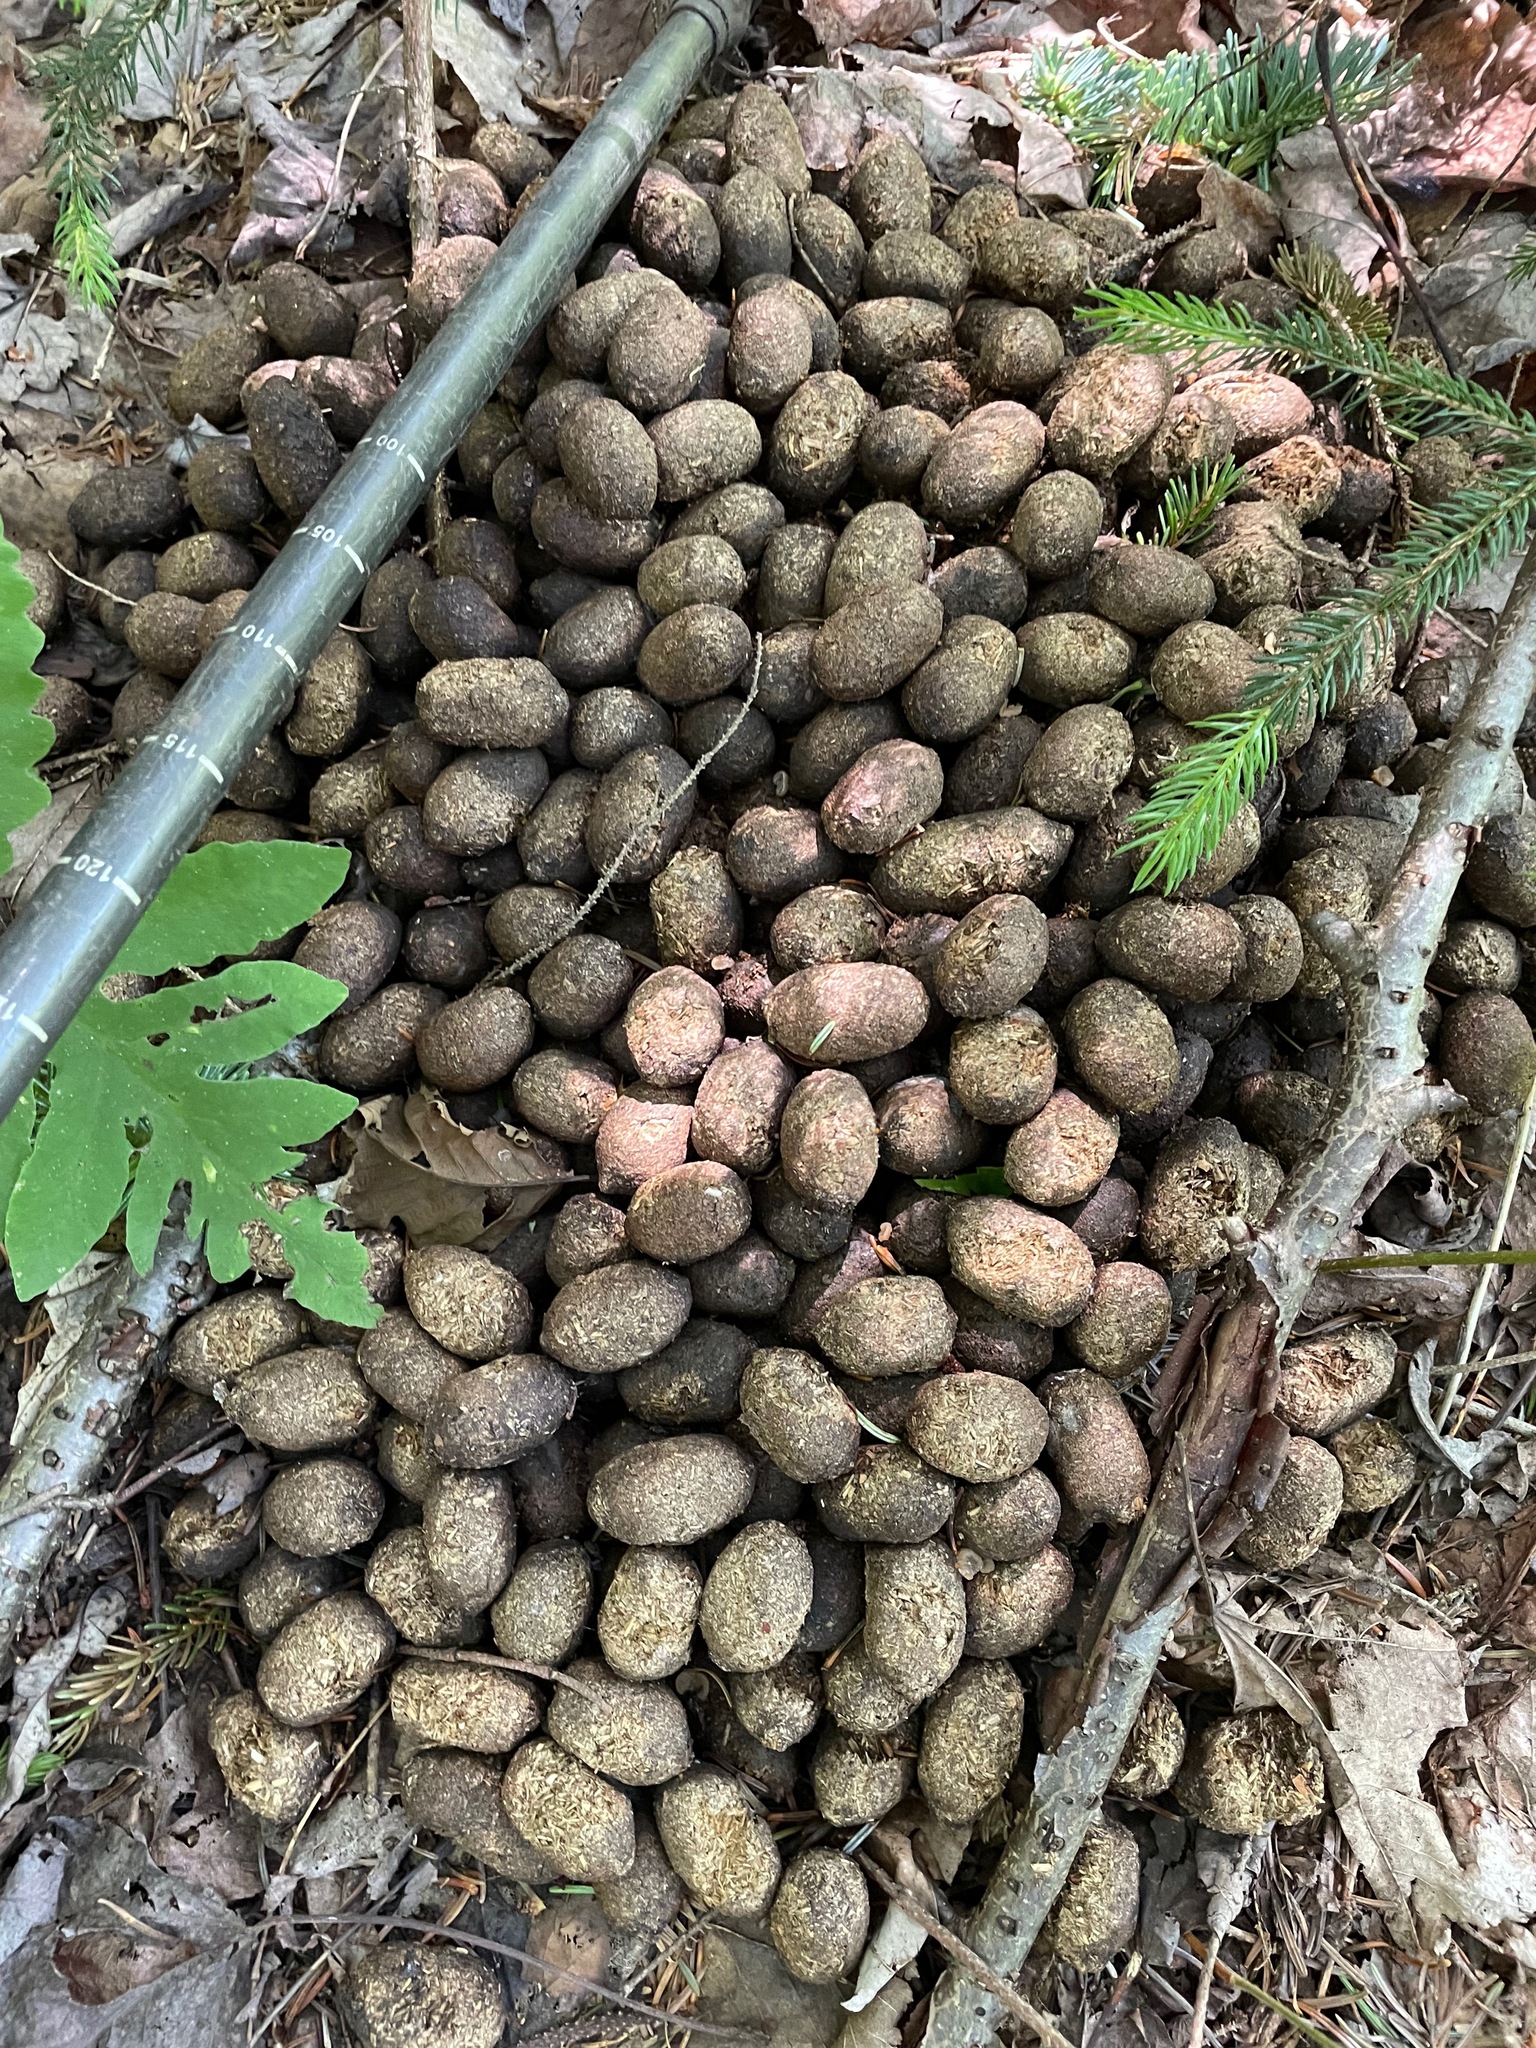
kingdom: Animalia
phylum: Chordata
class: Mammalia
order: Artiodactyla
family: Cervidae
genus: Alces
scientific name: Alces alces
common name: Moose
